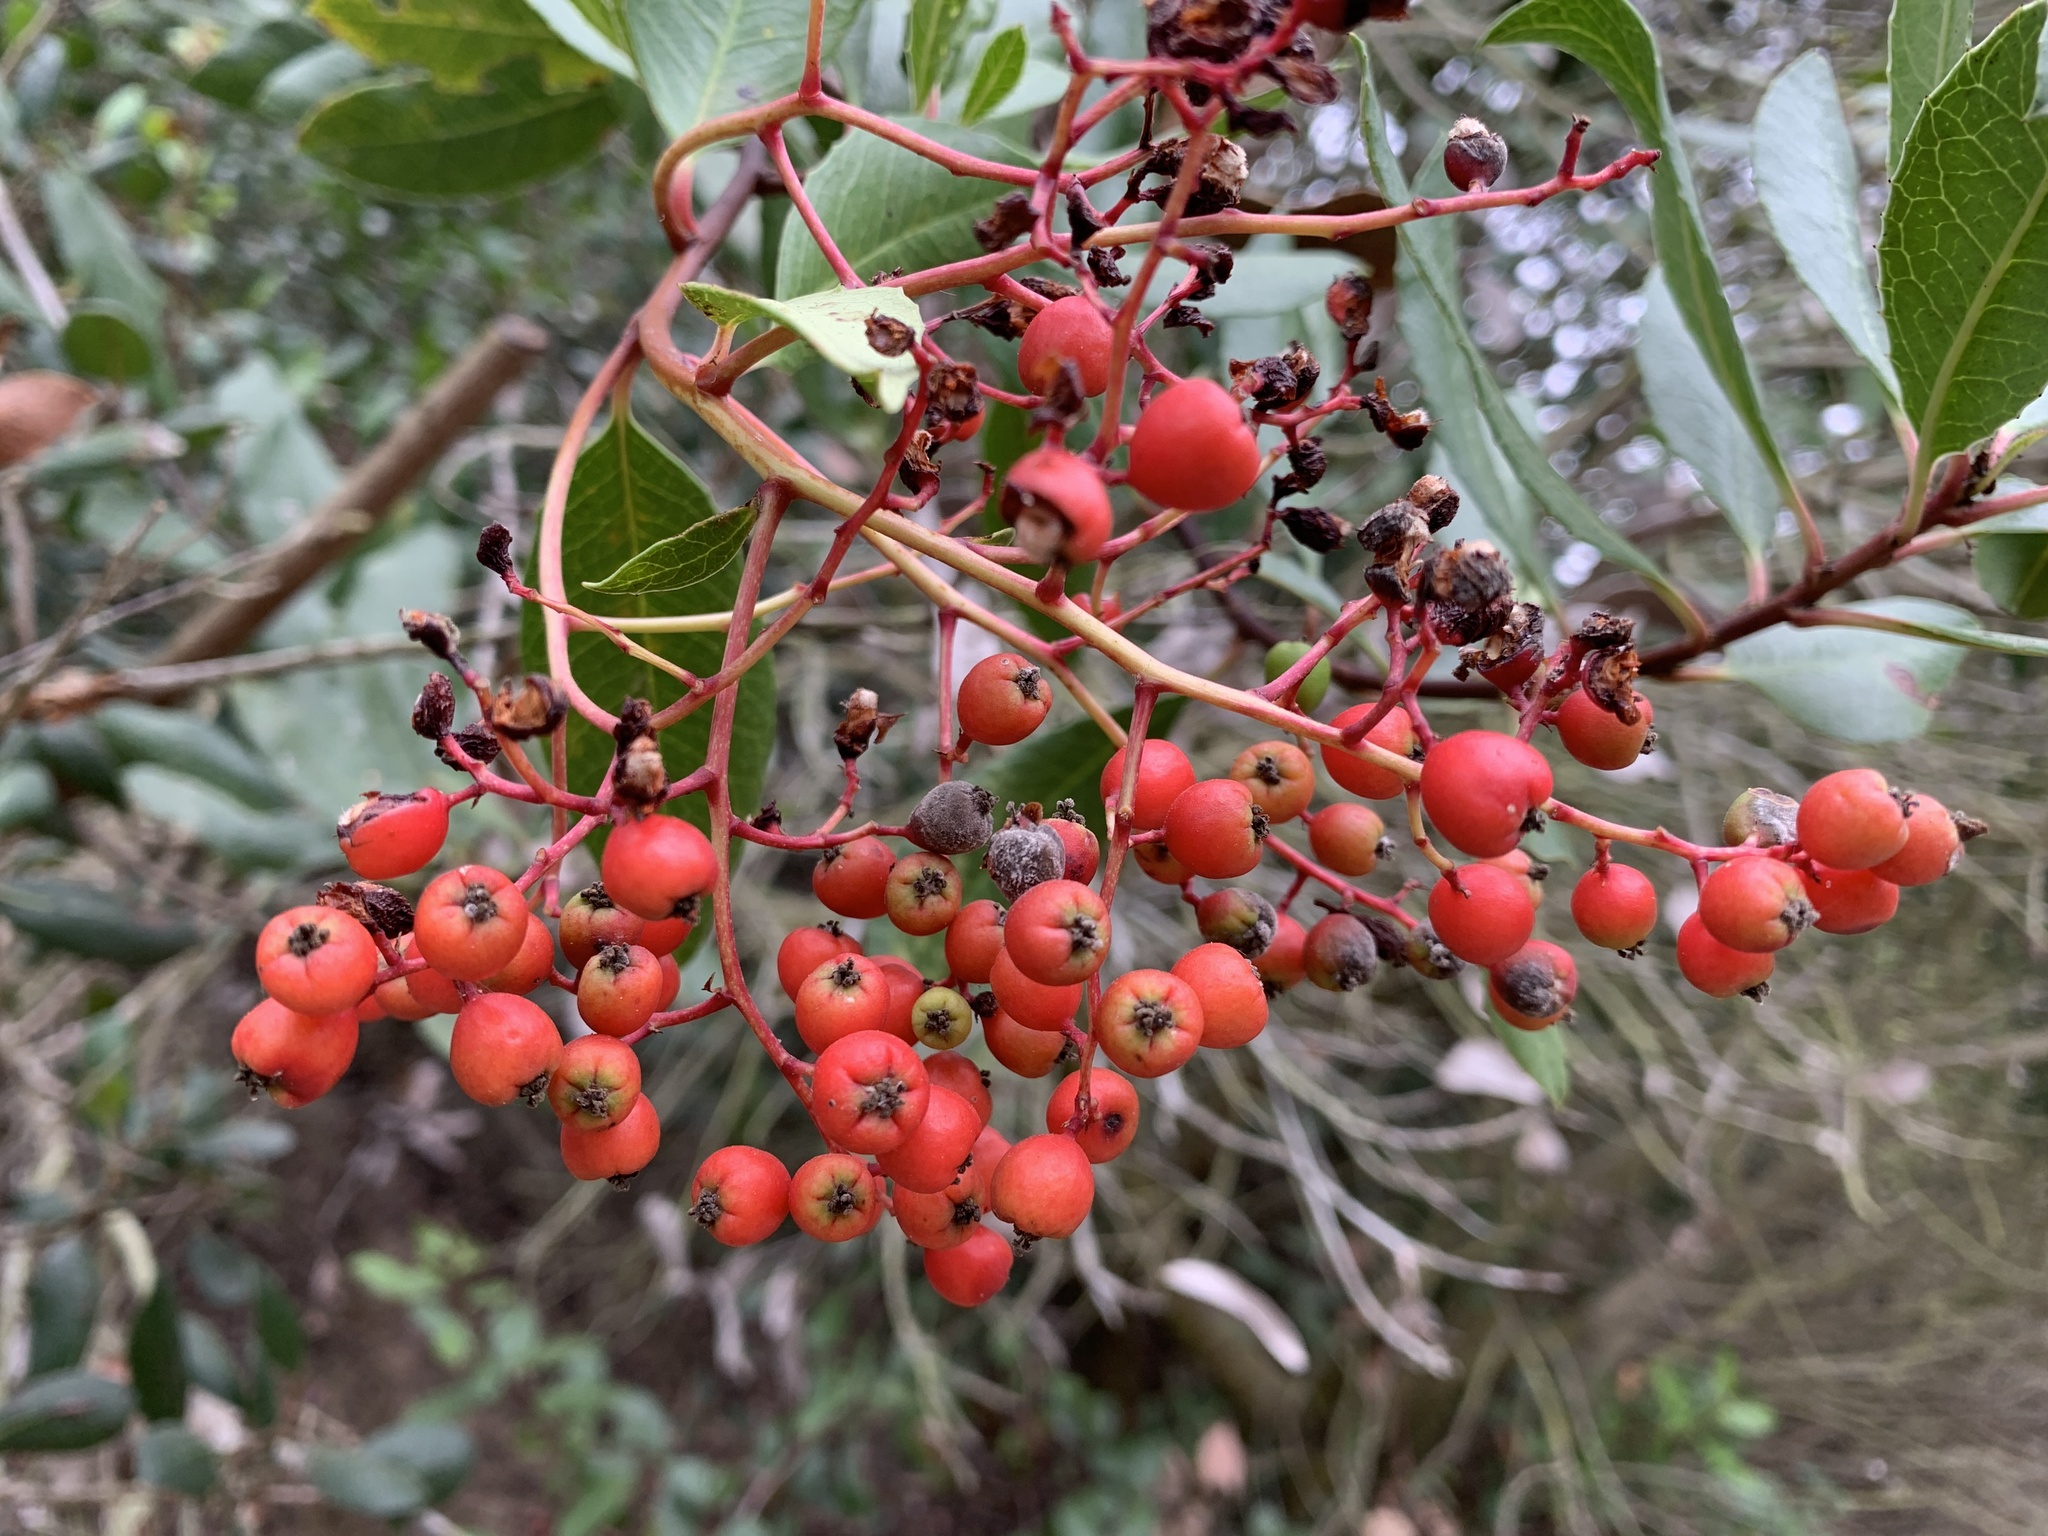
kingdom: Plantae
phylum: Tracheophyta
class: Magnoliopsida
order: Rosales
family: Rosaceae
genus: Heteromeles
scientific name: Heteromeles arbutifolia
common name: California-holly
